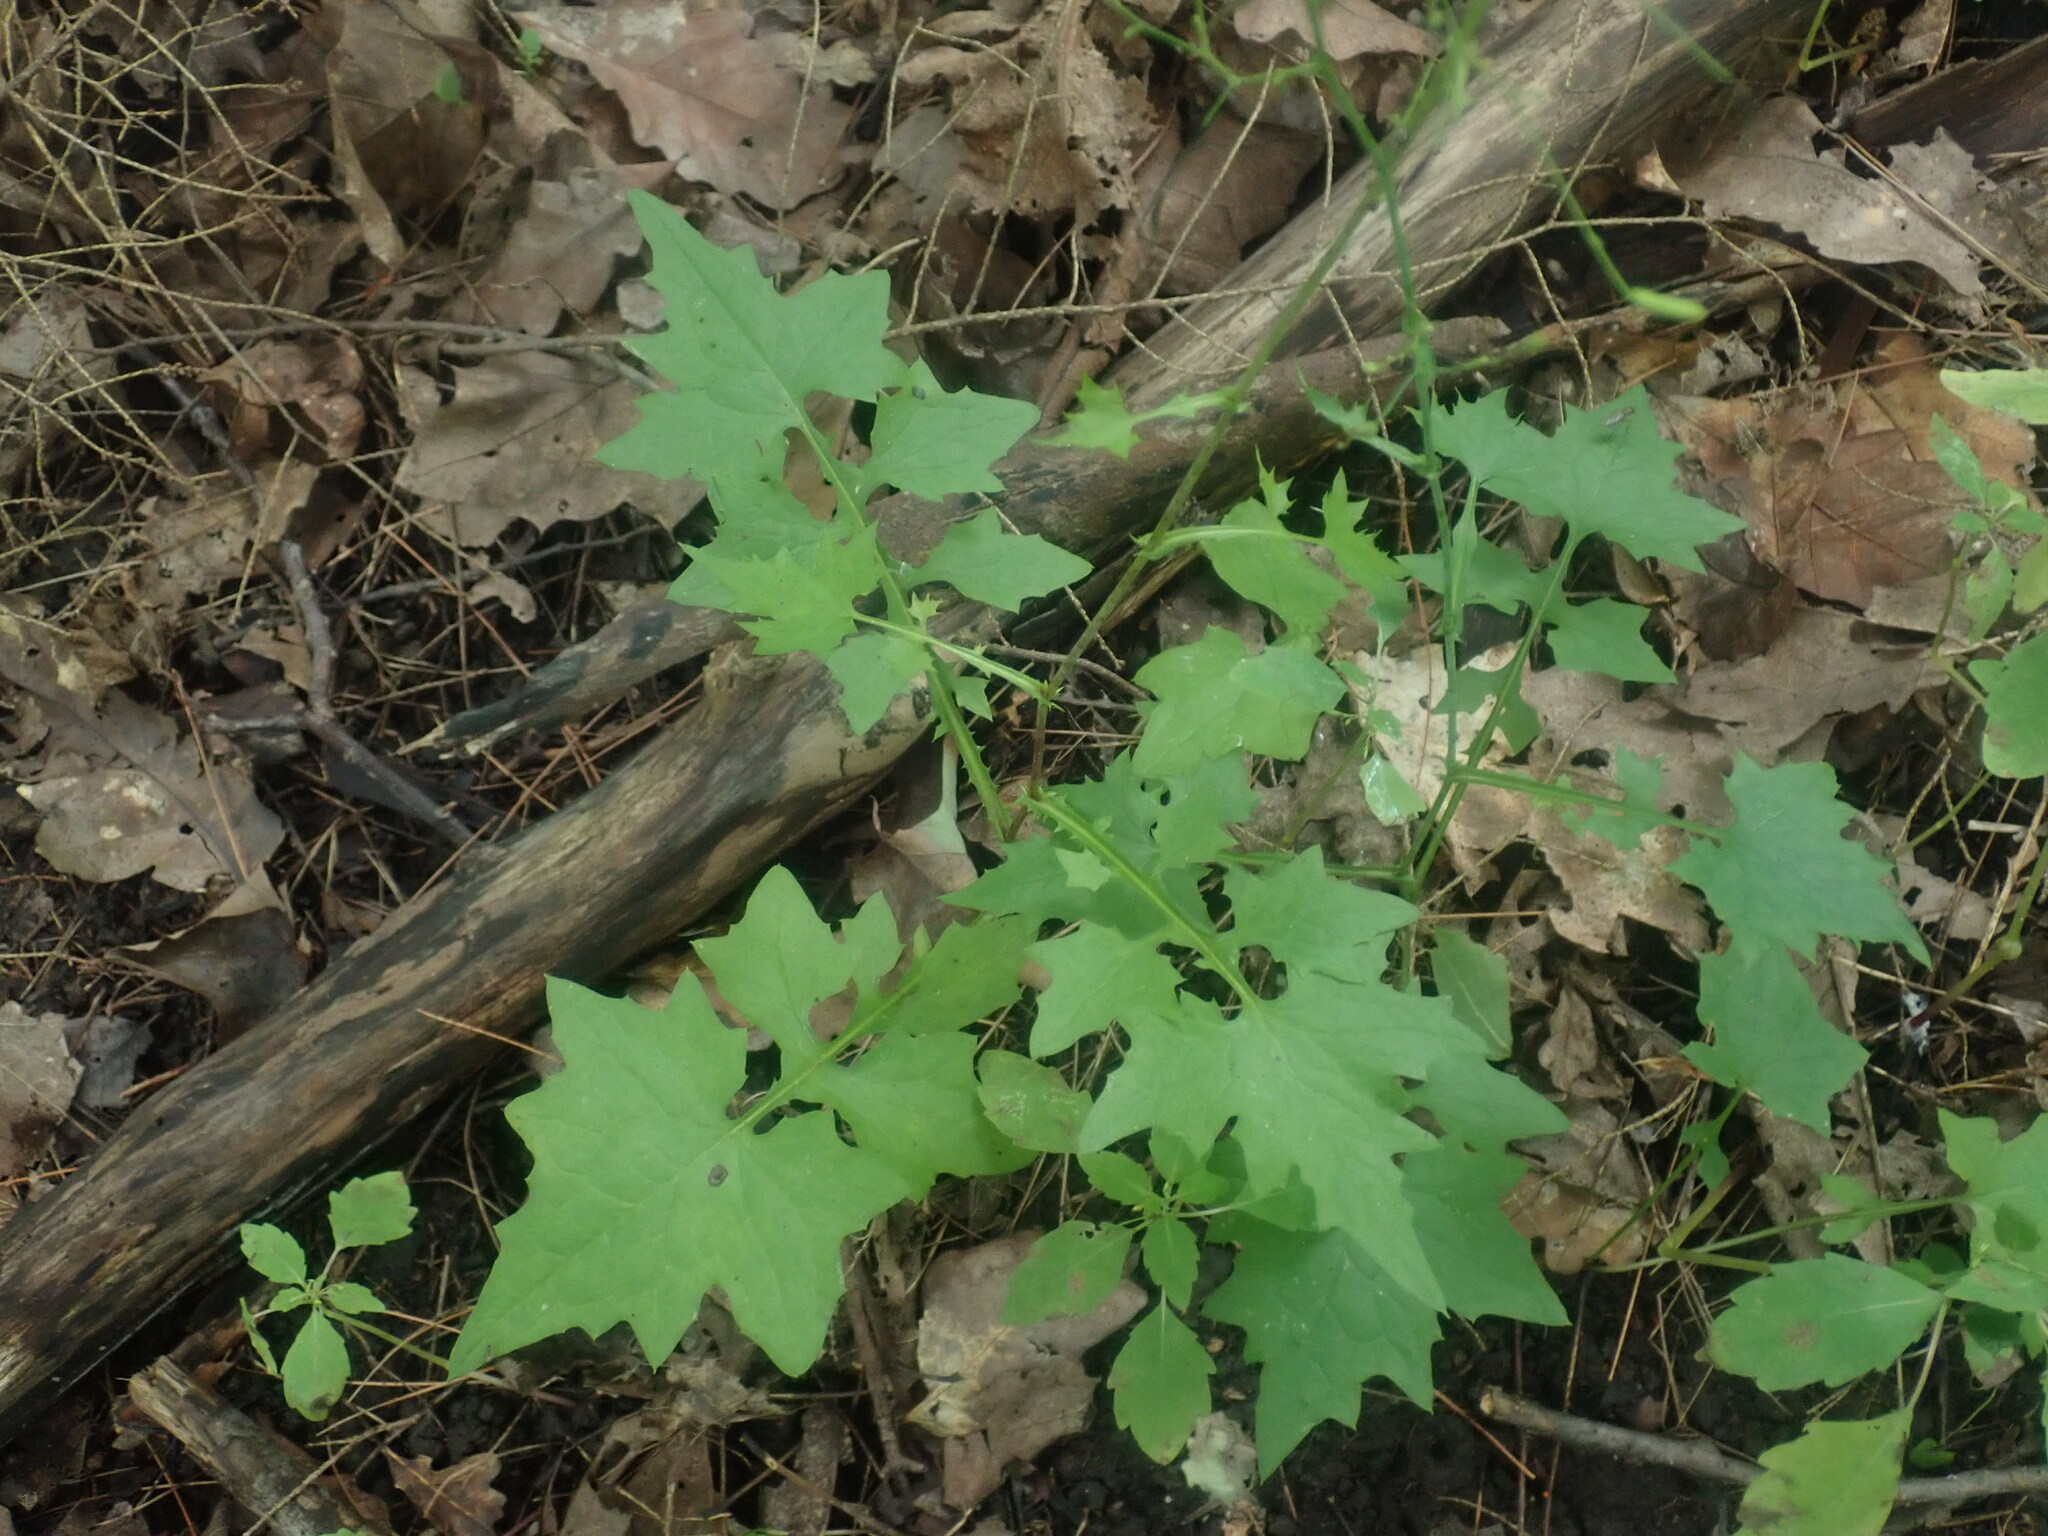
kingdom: Plantae
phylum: Tracheophyta
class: Magnoliopsida
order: Asterales
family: Asteraceae
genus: Mycelis
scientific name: Mycelis muralis
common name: Wall lettuce
